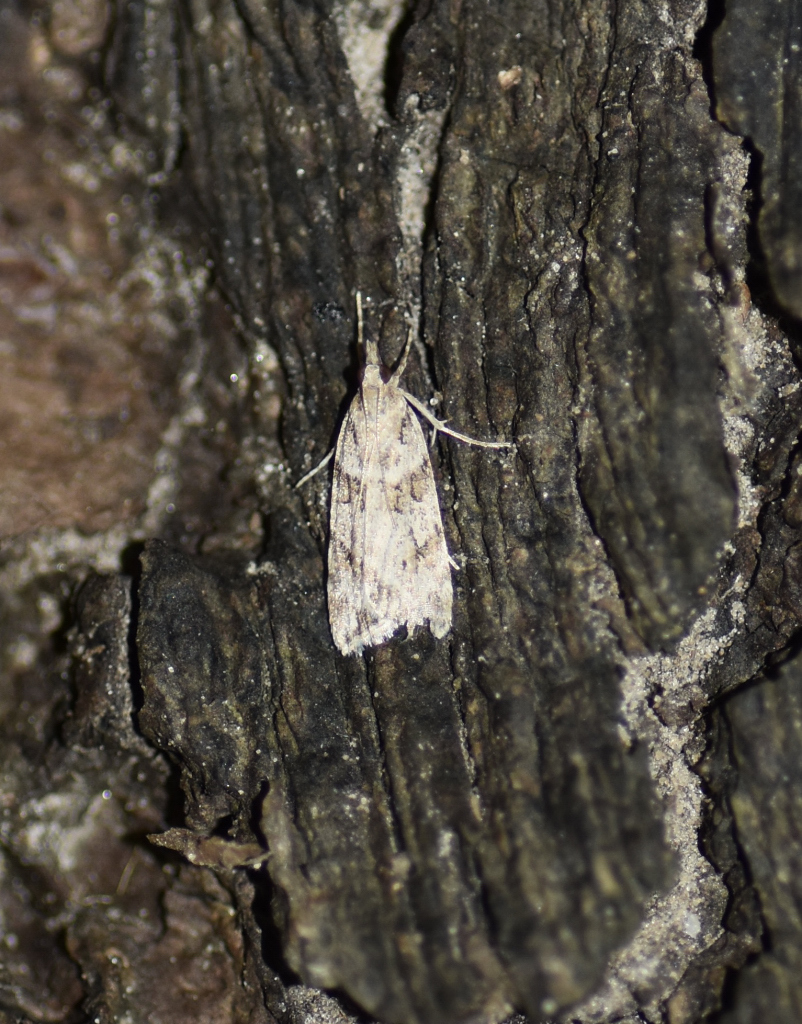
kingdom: Animalia
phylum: Arthropoda
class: Insecta
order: Lepidoptera
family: Crambidae
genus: Scoparia
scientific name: Scoparia biplagialis
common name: Double-striped scoparia moth
